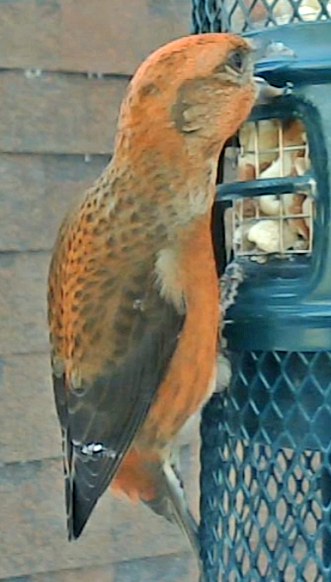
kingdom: Animalia
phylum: Chordata
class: Aves
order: Passeriformes
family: Fringillidae
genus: Loxia
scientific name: Loxia curvirostra
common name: Red crossbill
